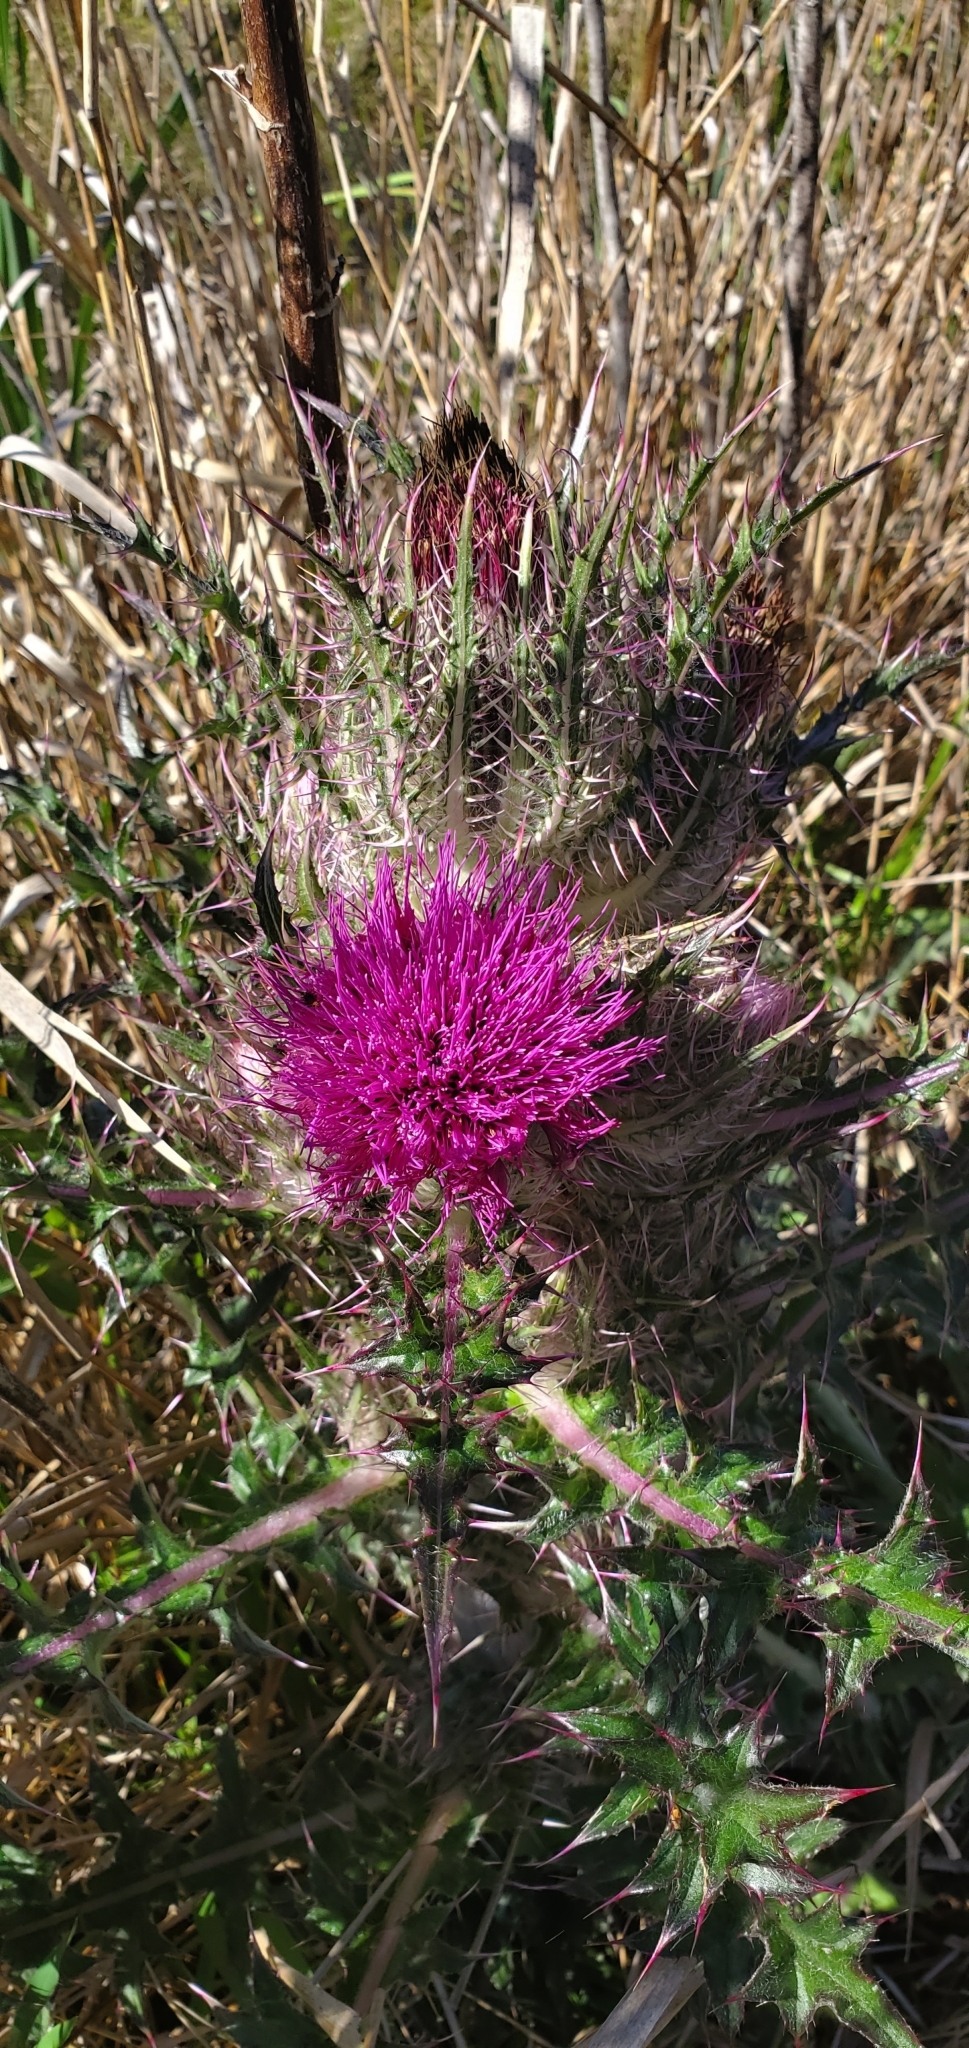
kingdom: Plantae
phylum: Tracheophyta
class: Magnoliopsida
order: Asterales
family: Asteraceae
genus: Cirsium
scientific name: Cirsium horridulum
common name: Bristly thistle
